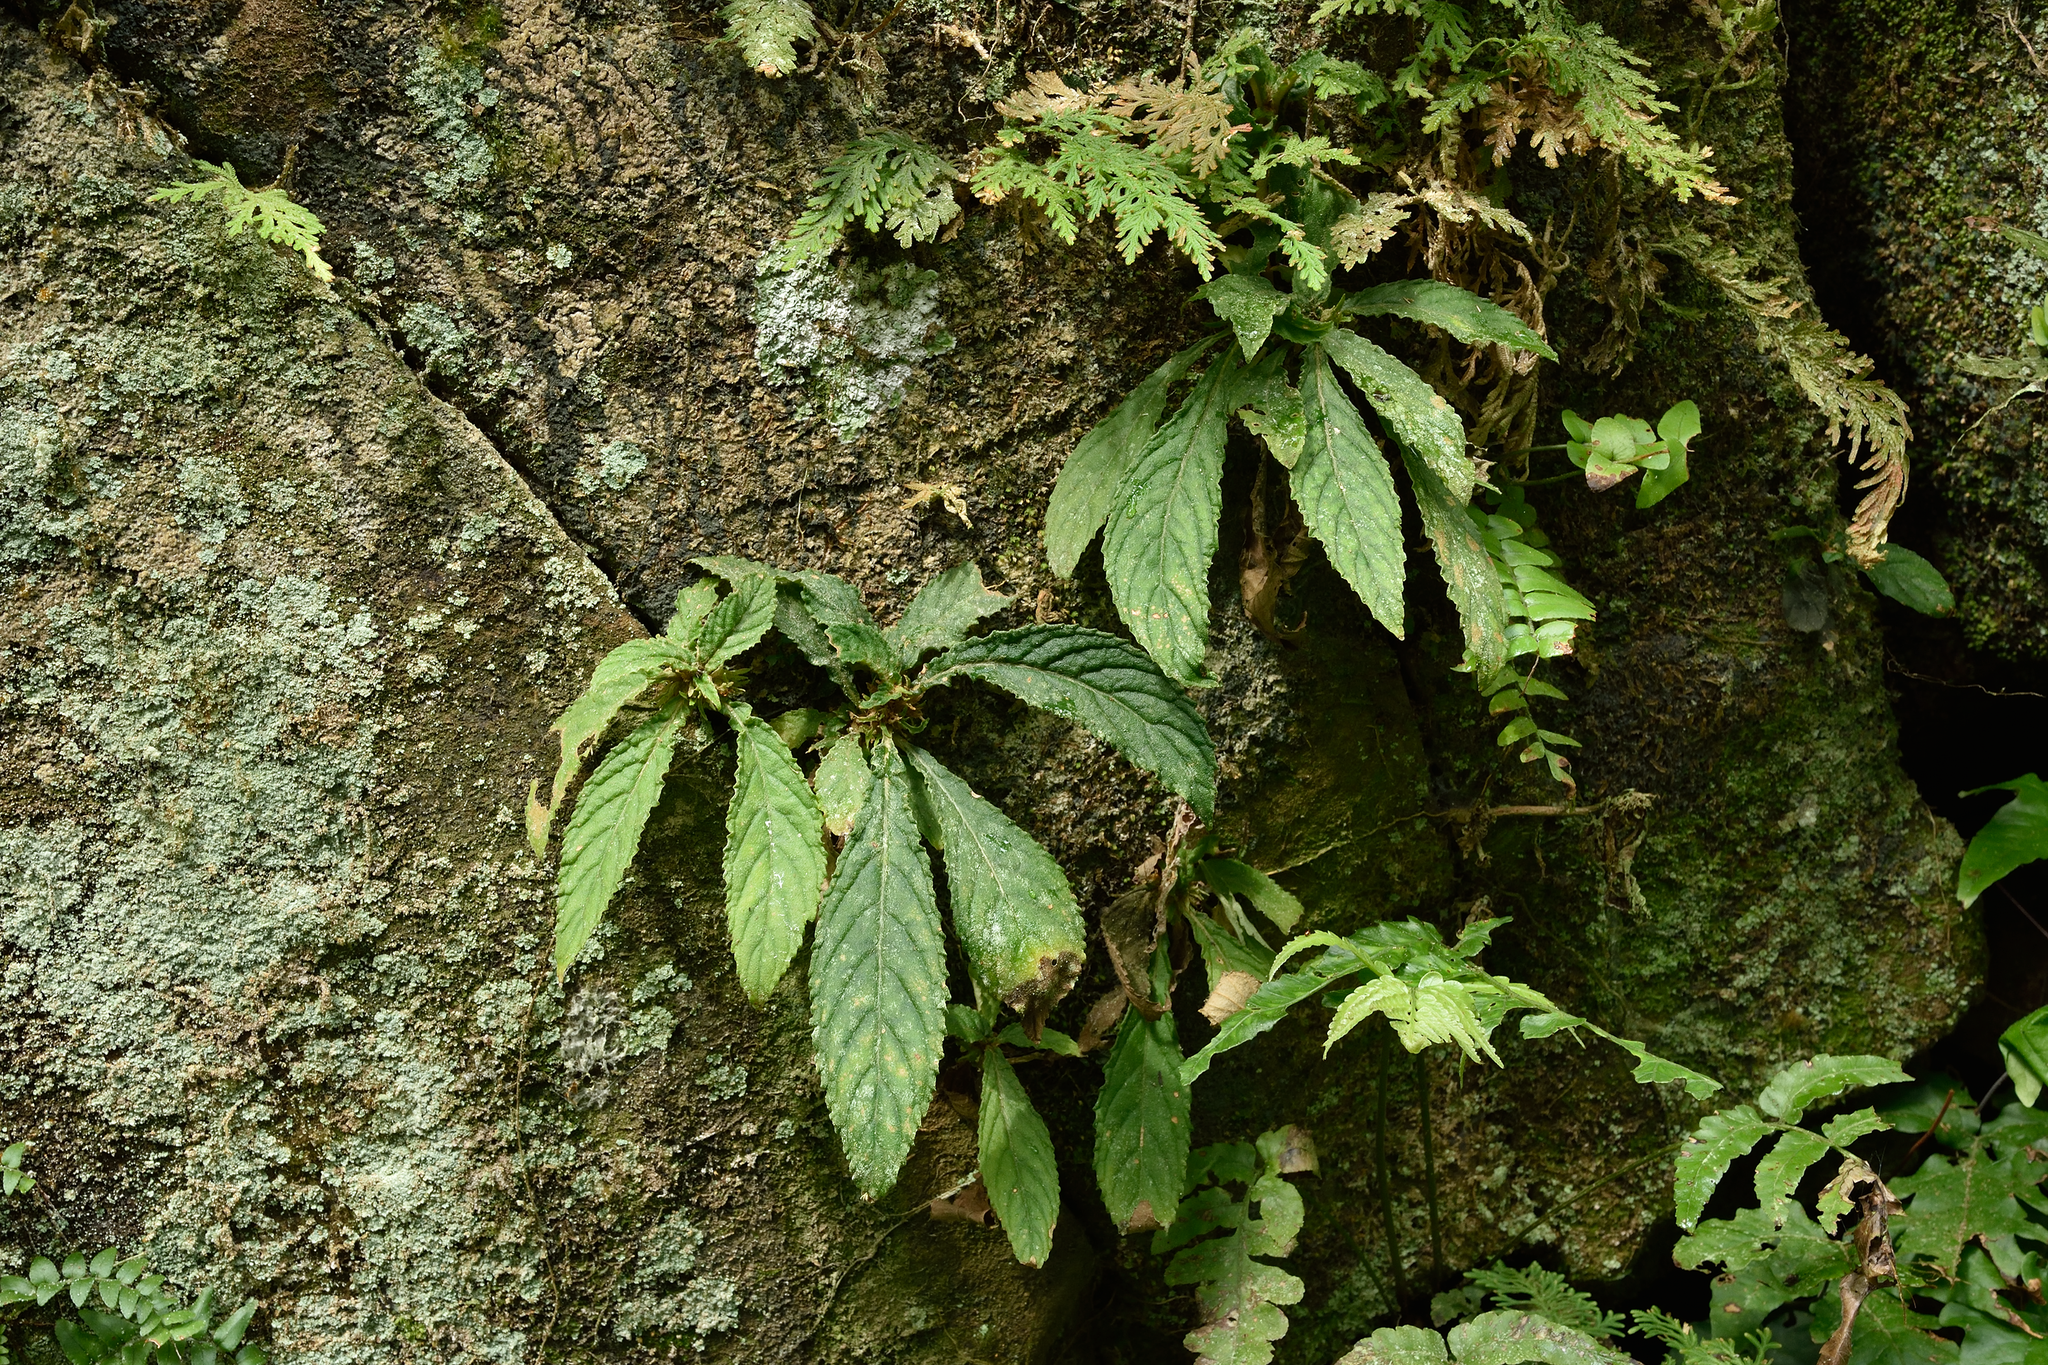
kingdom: Plantae
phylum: Tracheophyta
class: Magnoliopsida
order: Lamiales
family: Gesneriaceae
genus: Rhynchotechum
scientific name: Rhynchotechum brevipedunculatum
